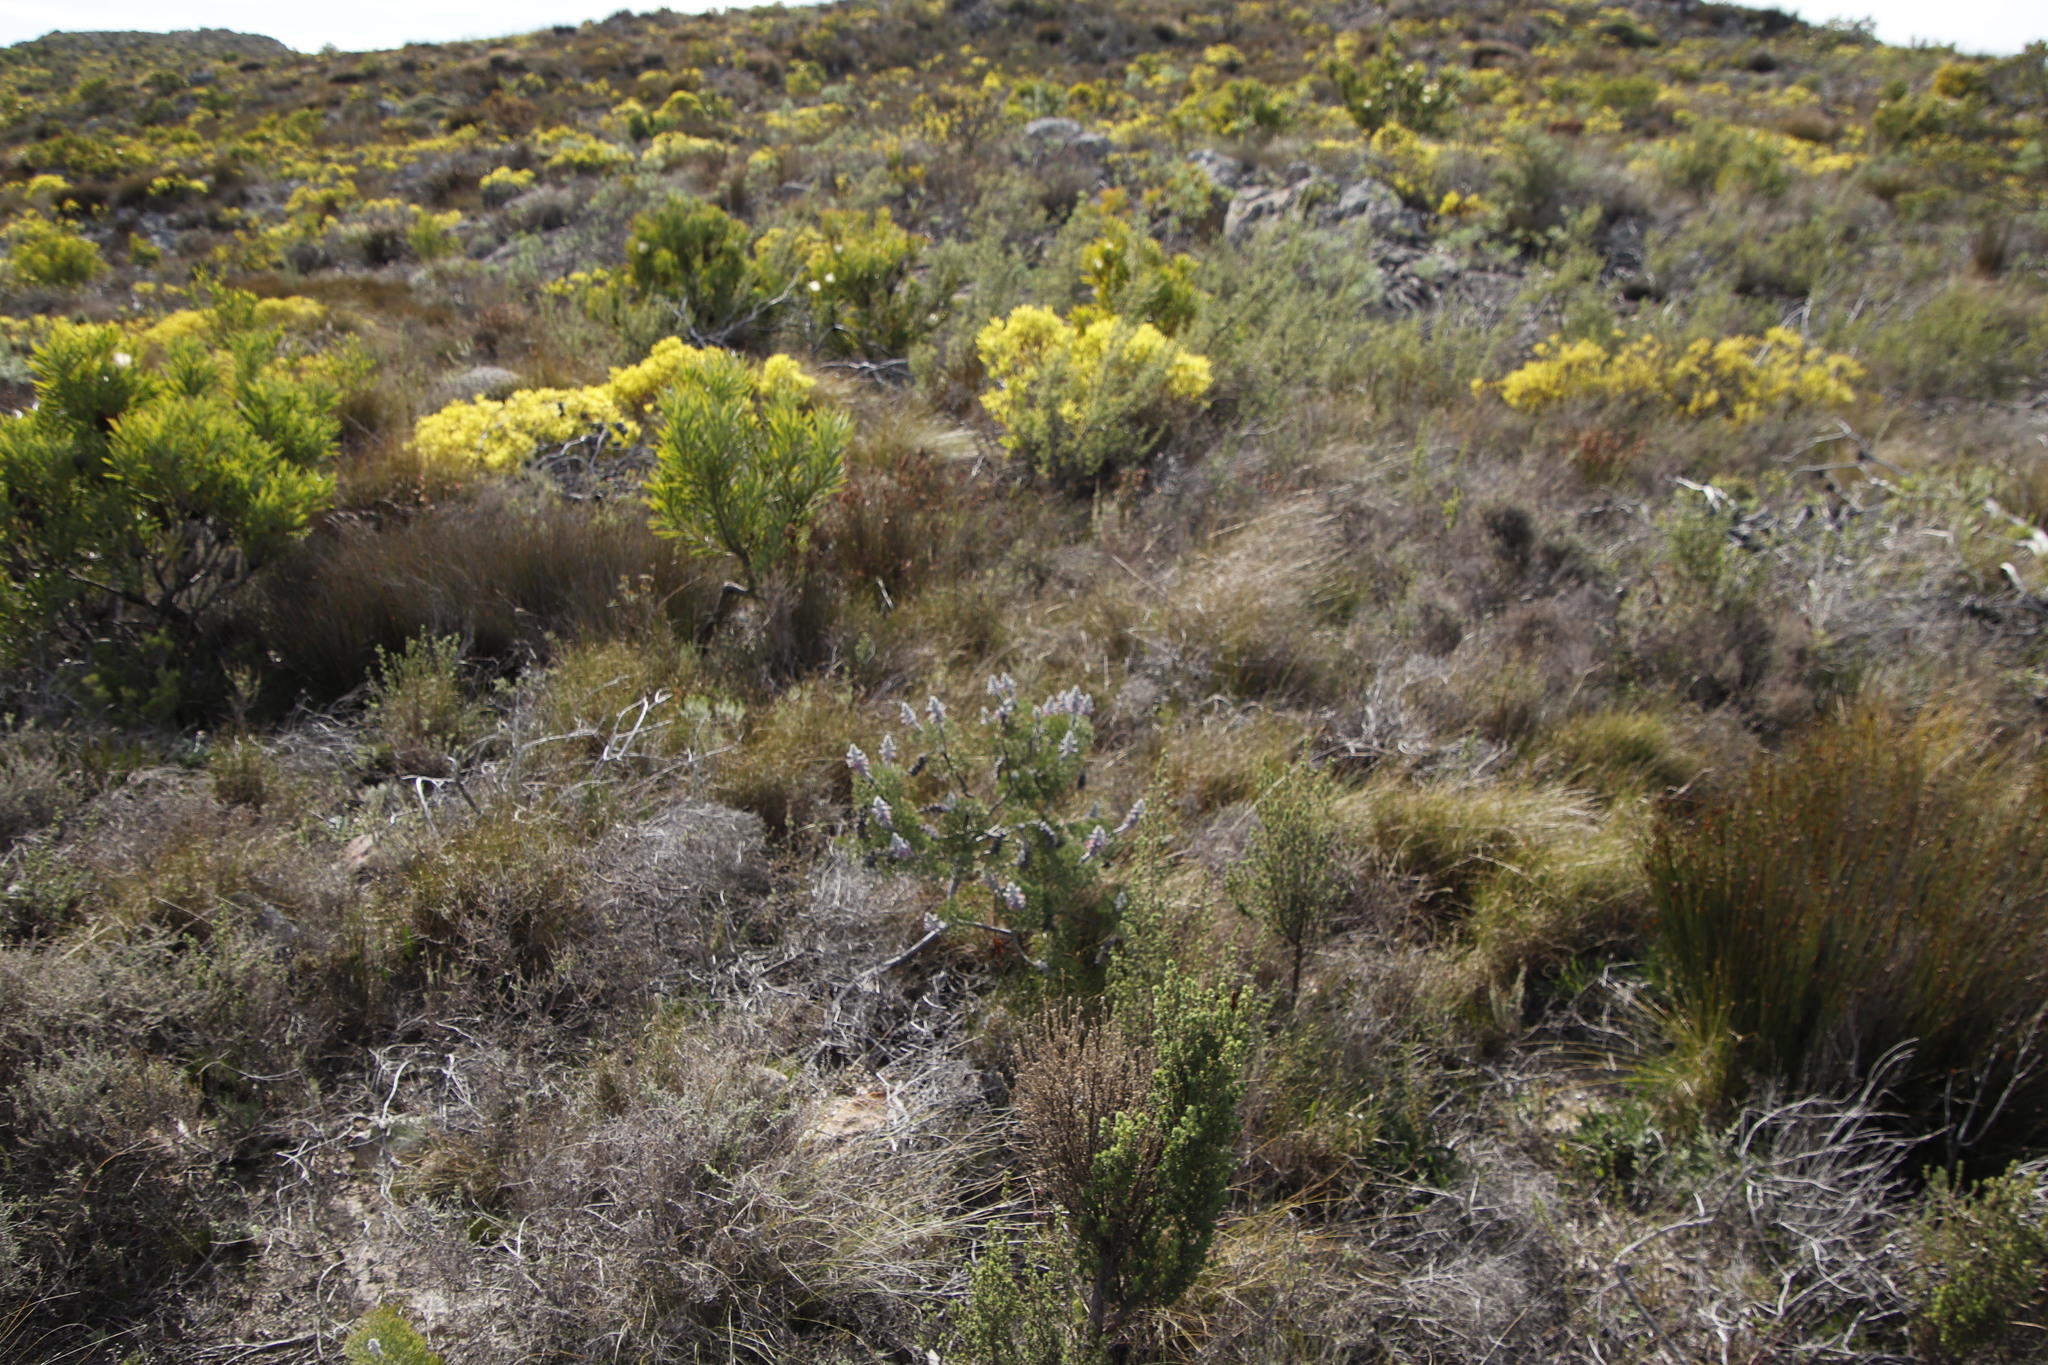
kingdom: Plantae
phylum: Tracheophyta
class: Magnoliopsida
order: Proteales
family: Proteaceae
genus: Paranomus
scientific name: Paranomus bolusii
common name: Overberg sceptre
